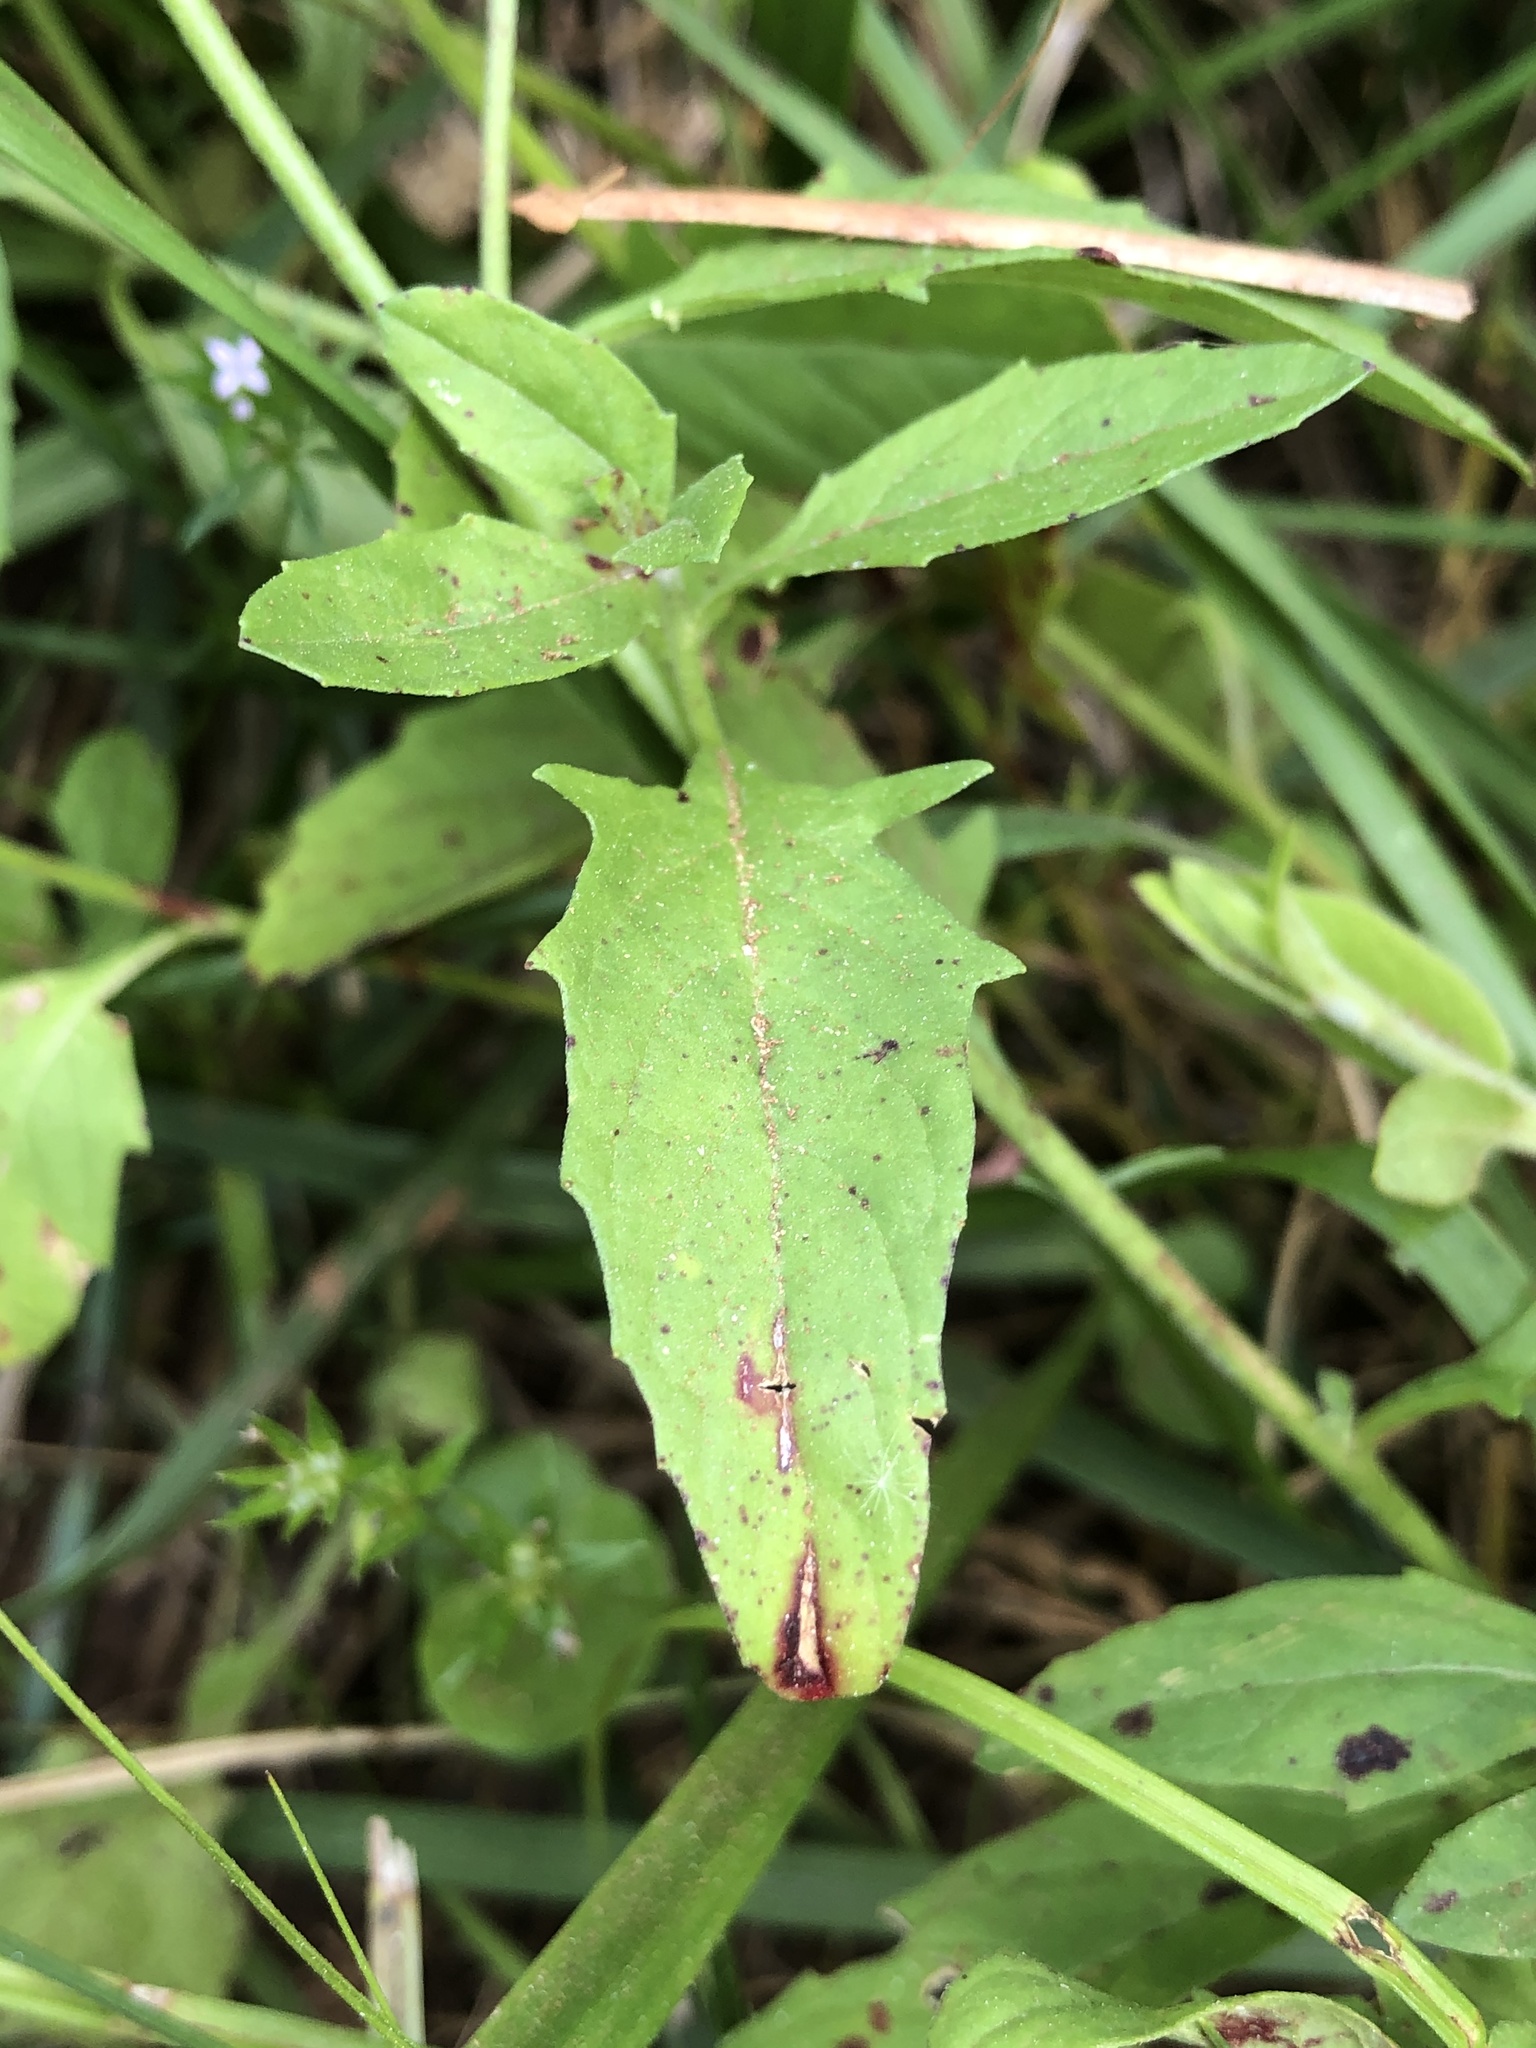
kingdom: Plantae
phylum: Tracheophyta
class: Magnoliopsida
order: Myrtales
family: Onagraceae
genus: Oenothera
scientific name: Oenothera speciosa
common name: White evening-primrose
